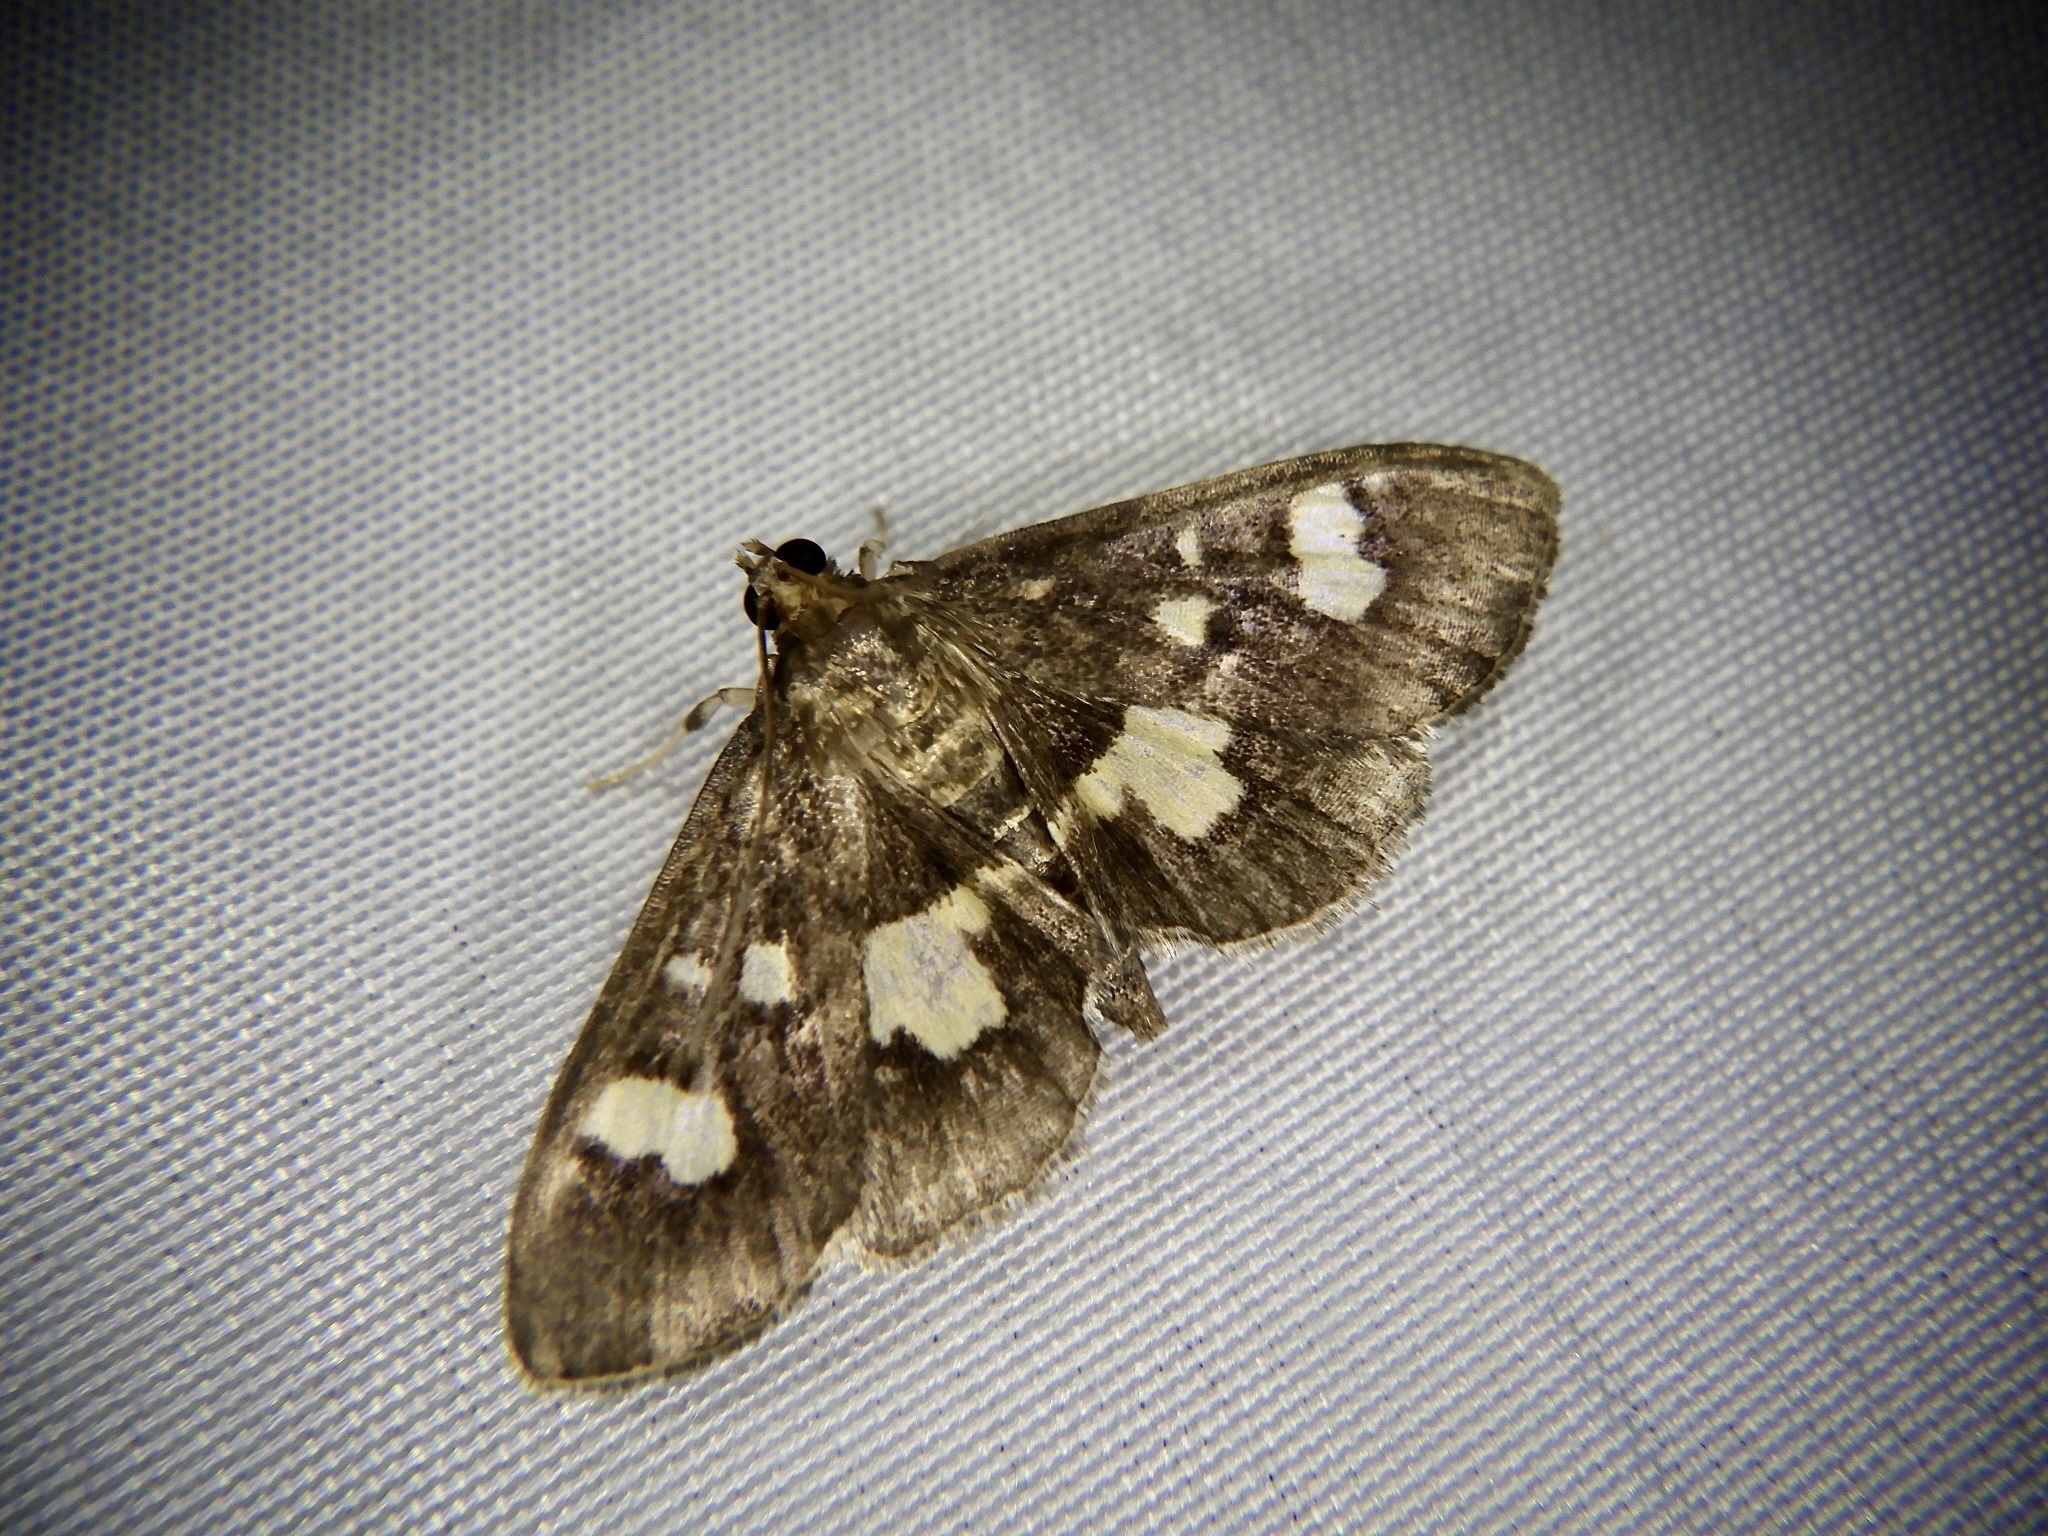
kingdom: Animalia
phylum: Arthropoda
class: Insecta
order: Lepidoptera
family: Crambidae
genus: Uresiphita
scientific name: Uresiphita tricolor
